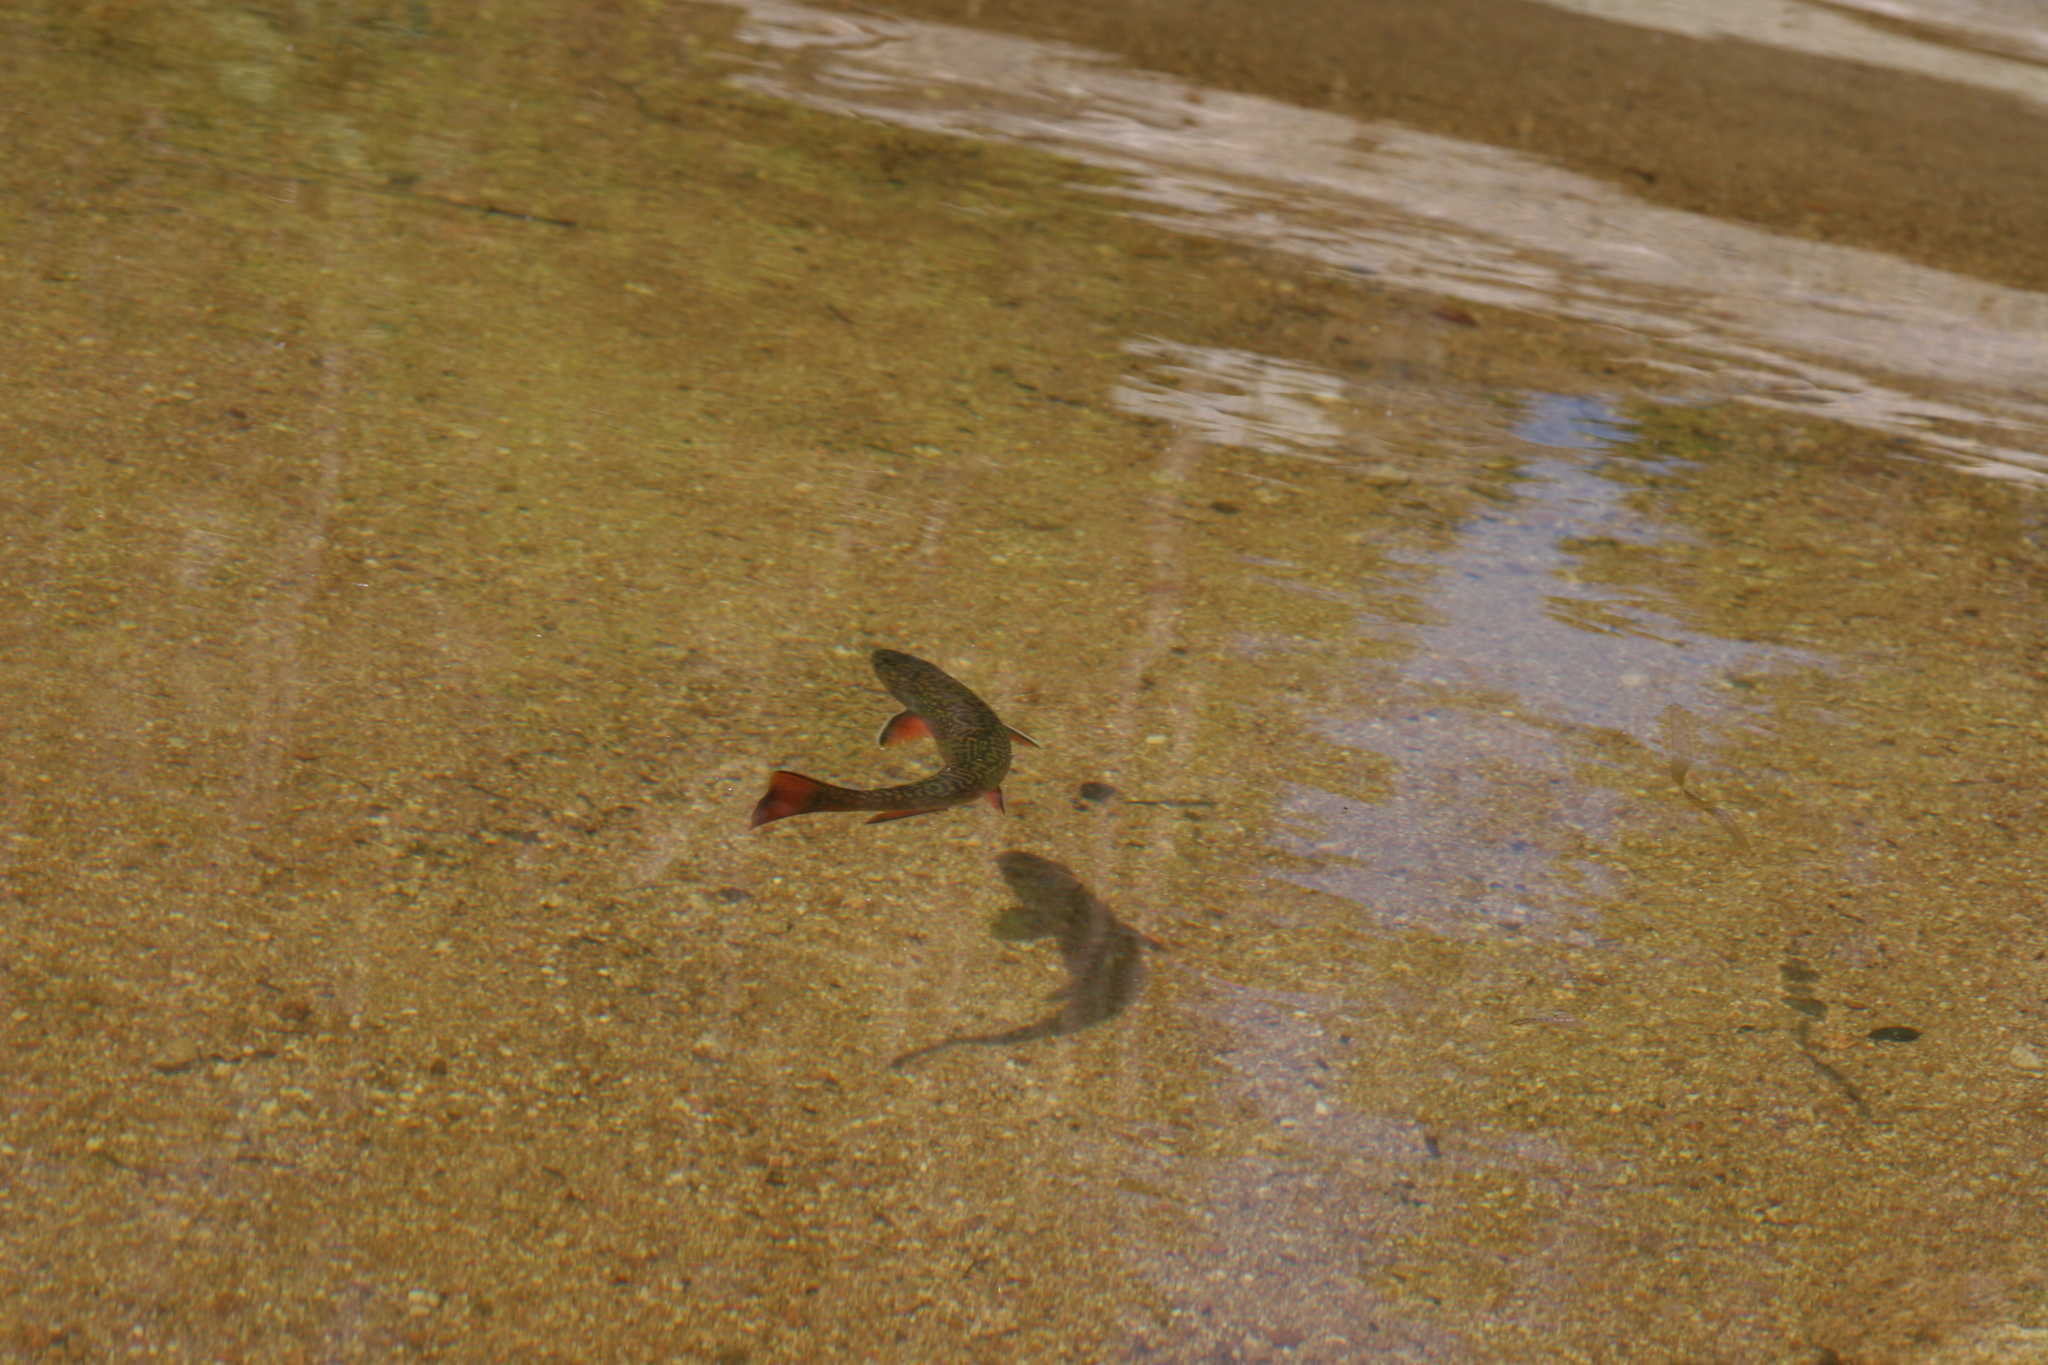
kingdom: Animalia
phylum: Chordata
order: Salmoniformes
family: Salmonidae
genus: Salvelinus
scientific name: Salvelinus fontinalis
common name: Brook trout
